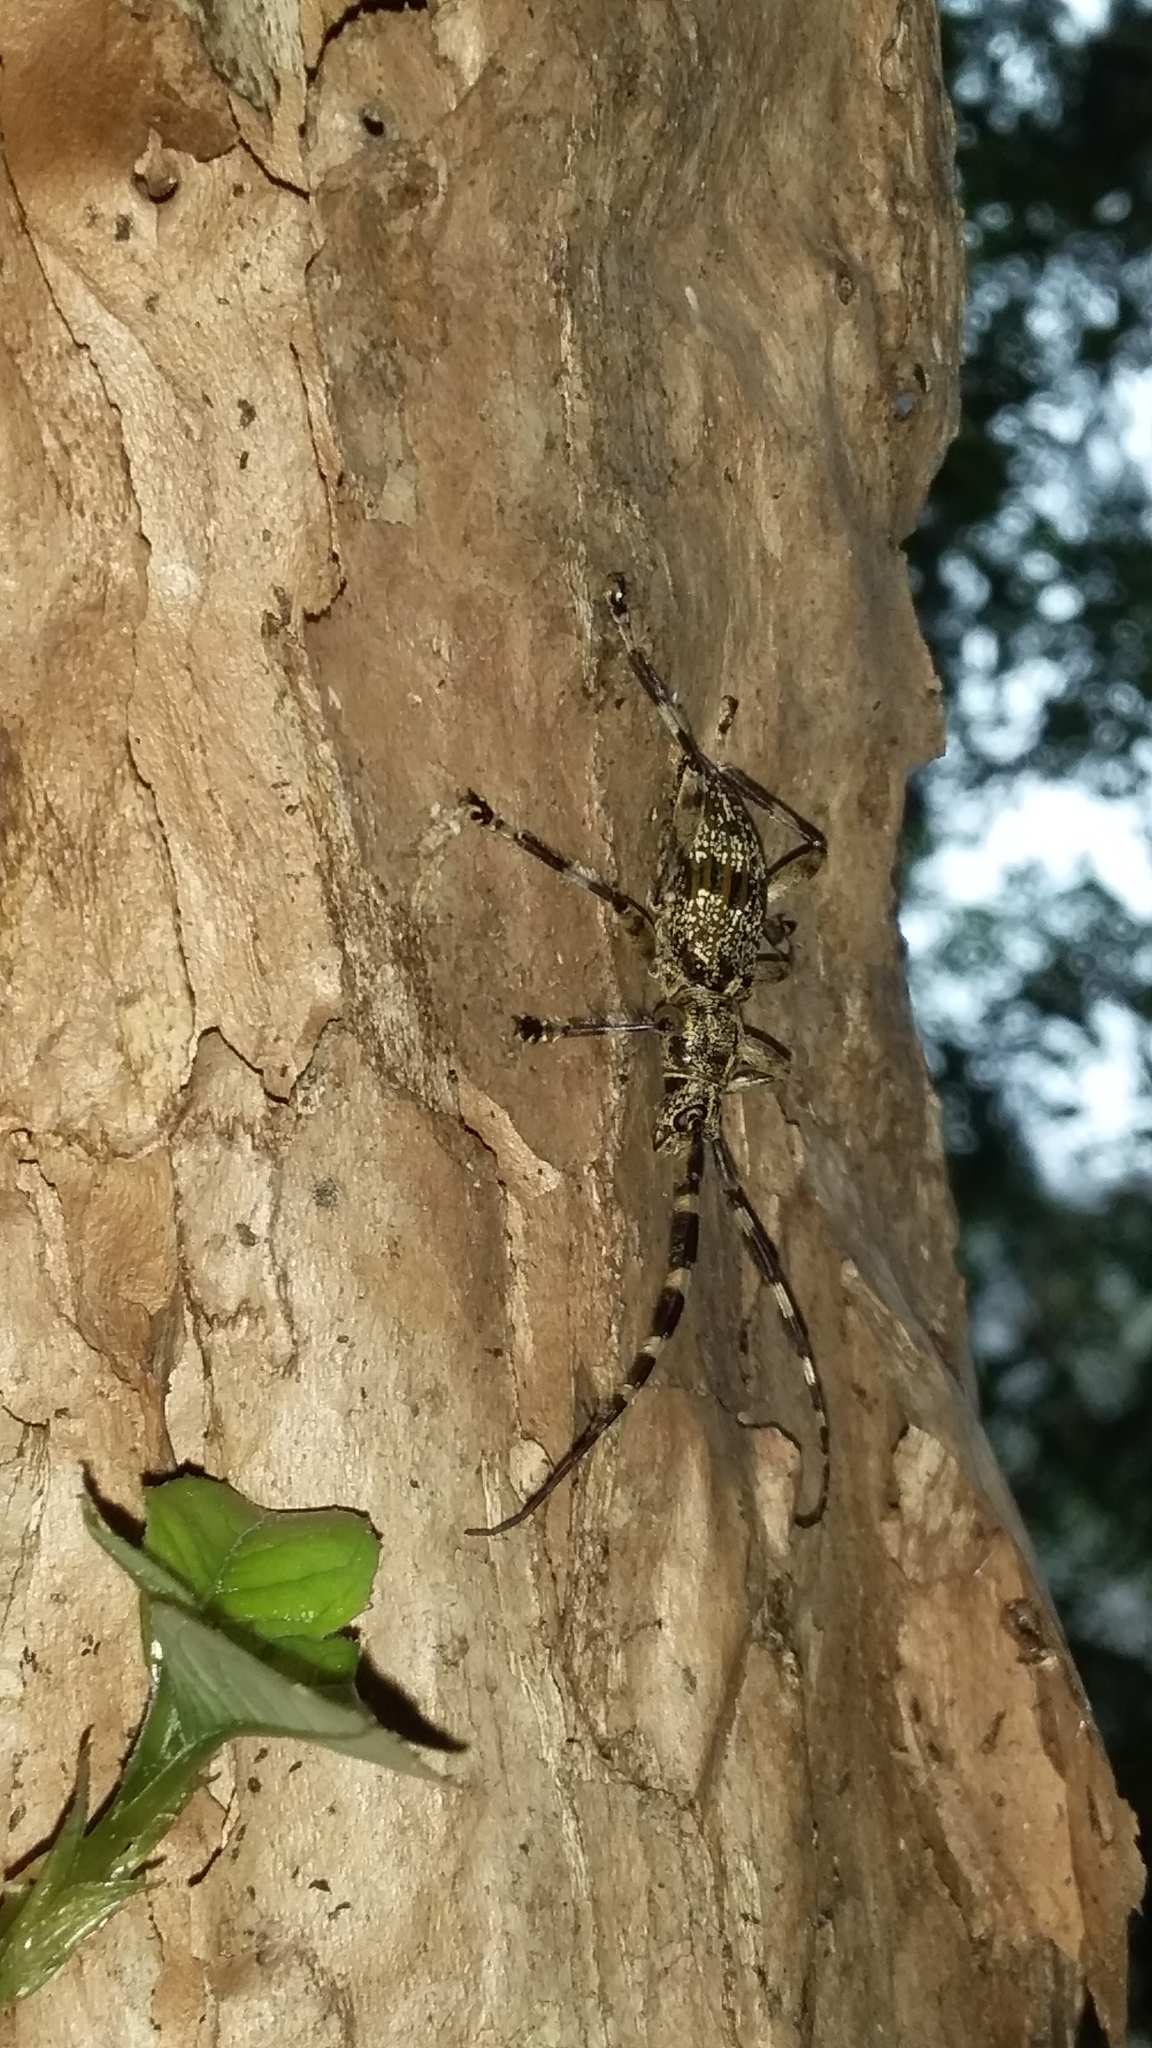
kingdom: Animalia
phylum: Arthropoda
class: Insecta
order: Coleoptera
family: Cerambycidae
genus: Hexatricha
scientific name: Hexatricha pulverulenta
